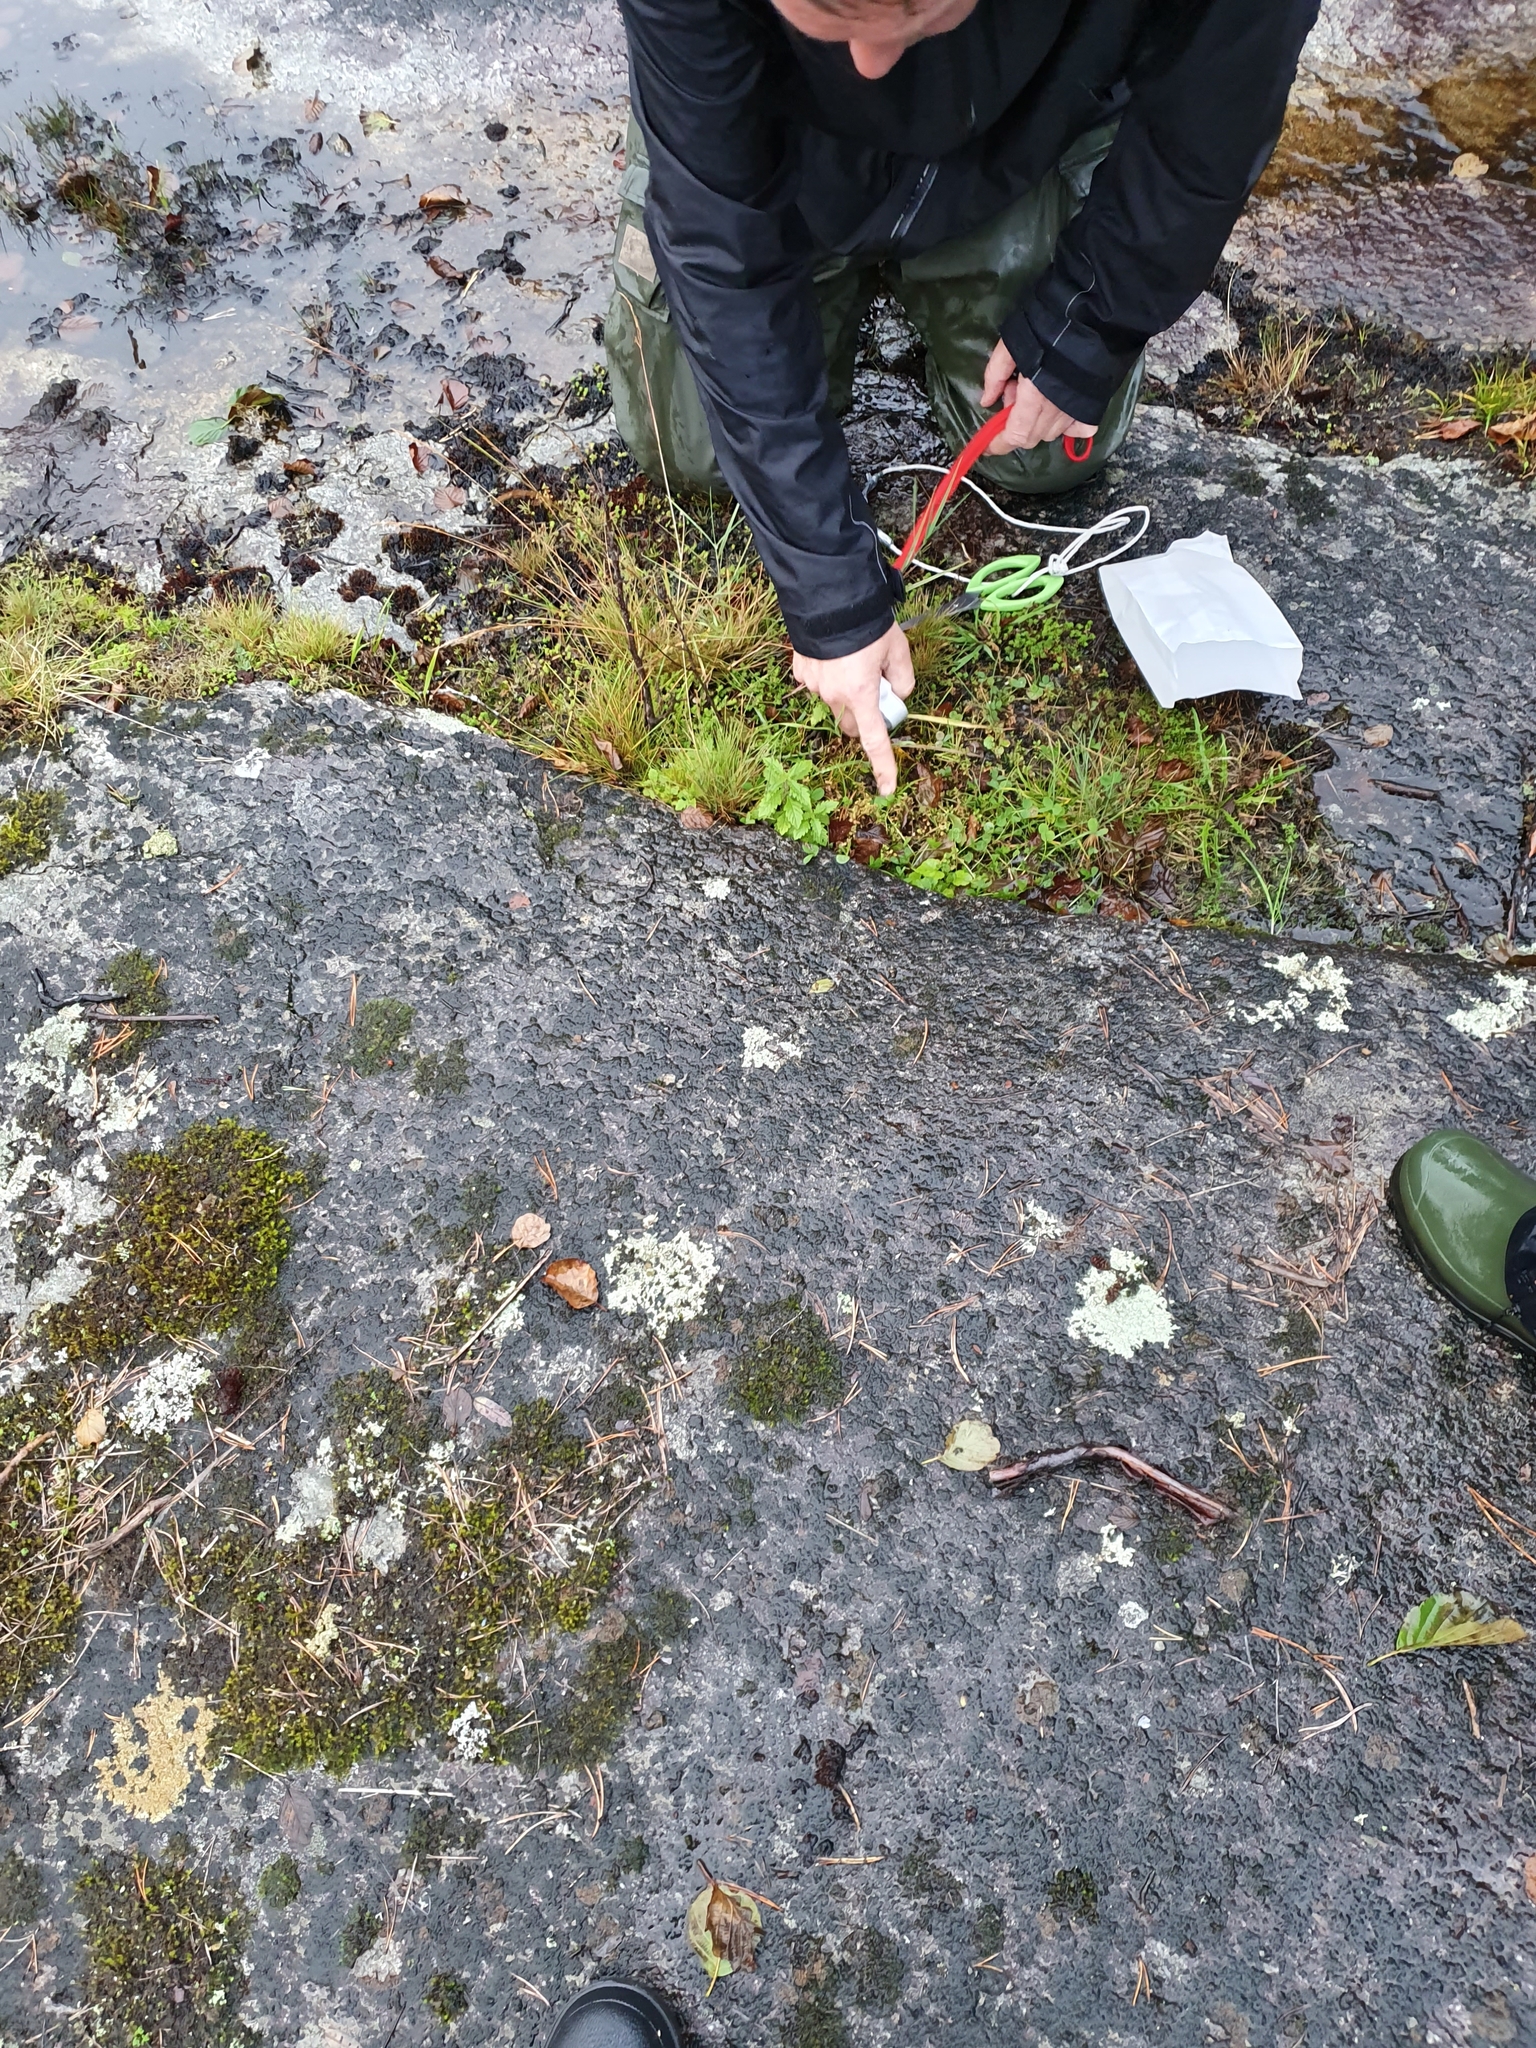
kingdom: Plantae
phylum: Tracheophyta
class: Magnoliopsida
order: Ericales
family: Primulaceae
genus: Lysimachia
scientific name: Lysimachia minima
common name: Chaffweed
